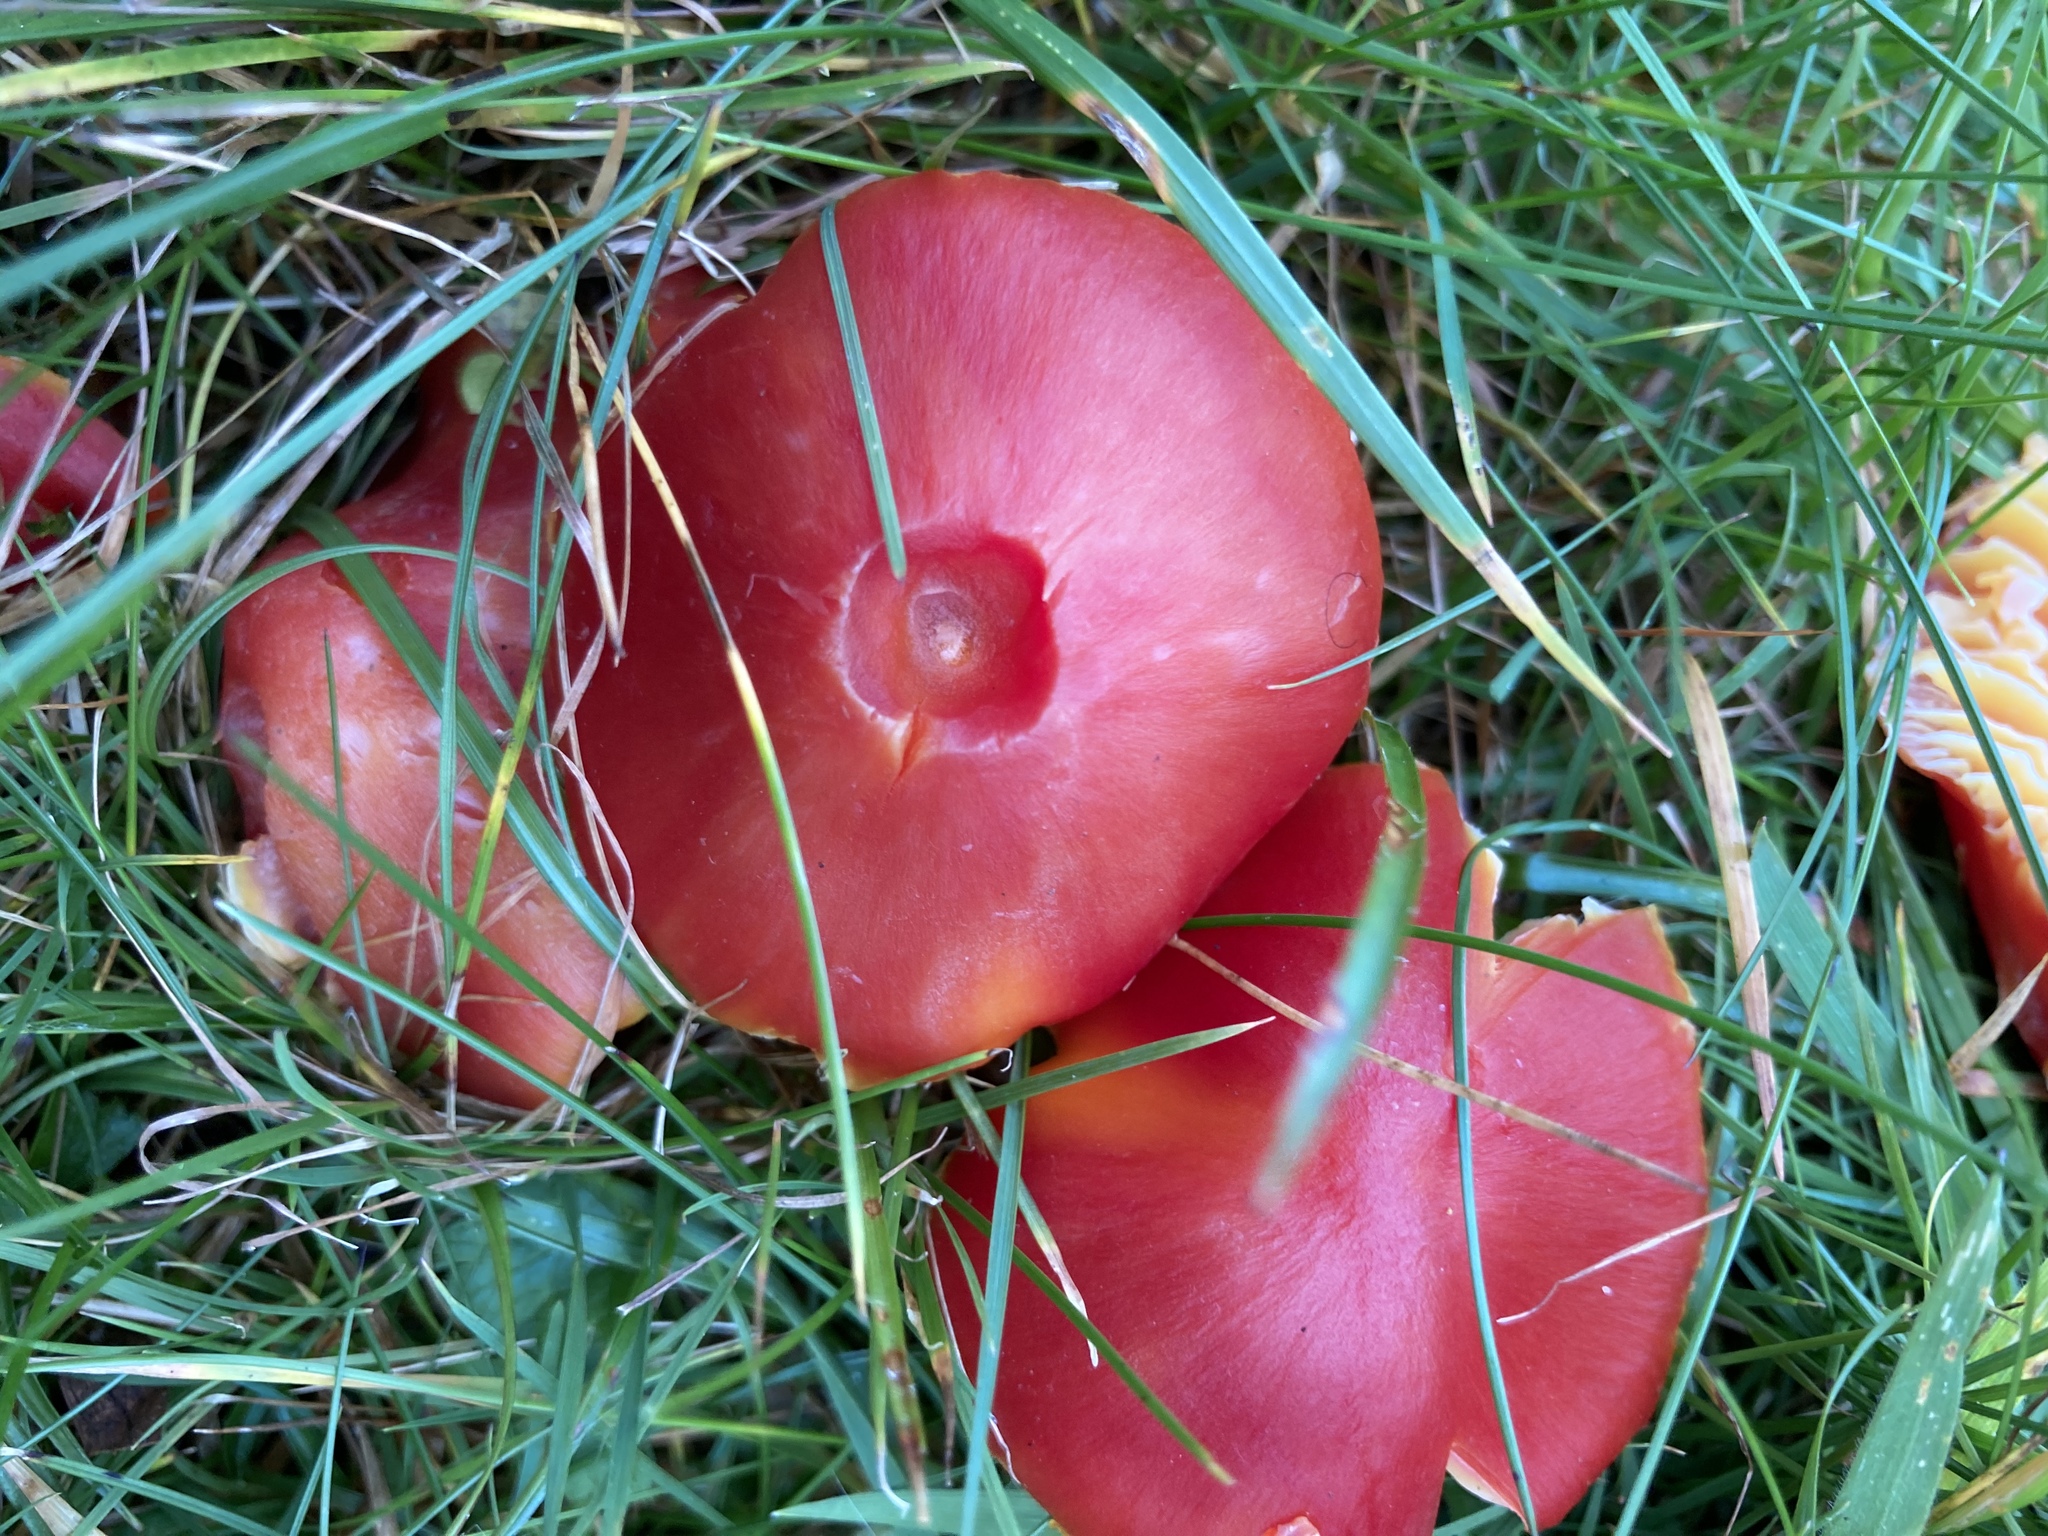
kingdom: Fungi
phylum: Basidiomycota
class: Agaricomycetes
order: Agaricales
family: Hygrophoraceae
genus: Hygrocybe
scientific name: Hygrocybe coccinea
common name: Scarlet hood
